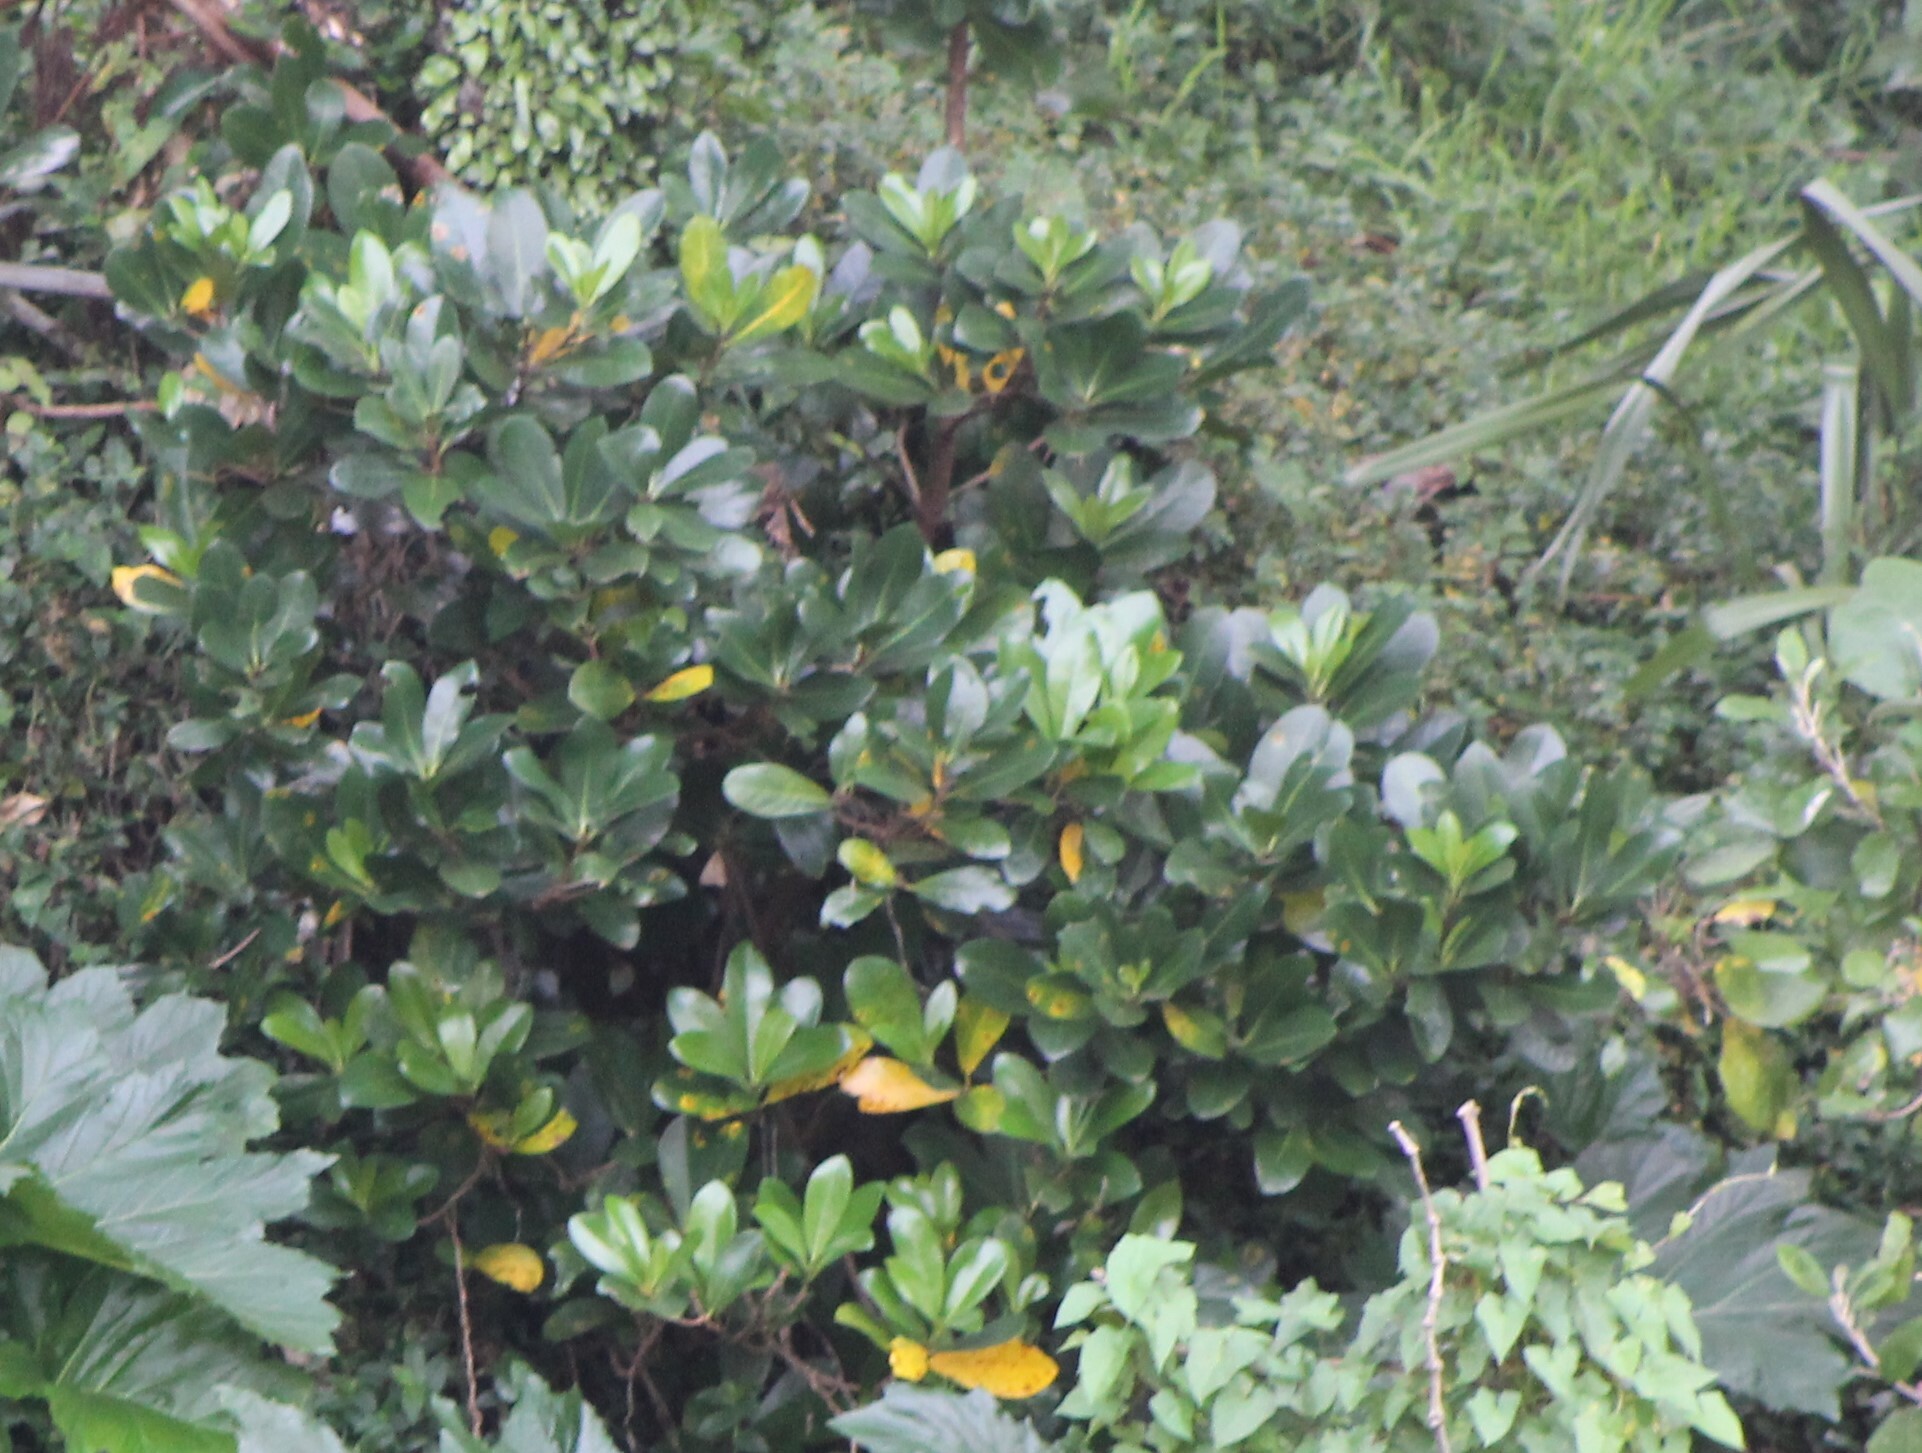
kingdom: Plantae
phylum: Tracheophyta
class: Magnoliopsida
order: Cucurbitales
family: Corynocarpaceae
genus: Corynocarpus
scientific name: Corynocarpus laevigatus
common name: New zealand laurel
